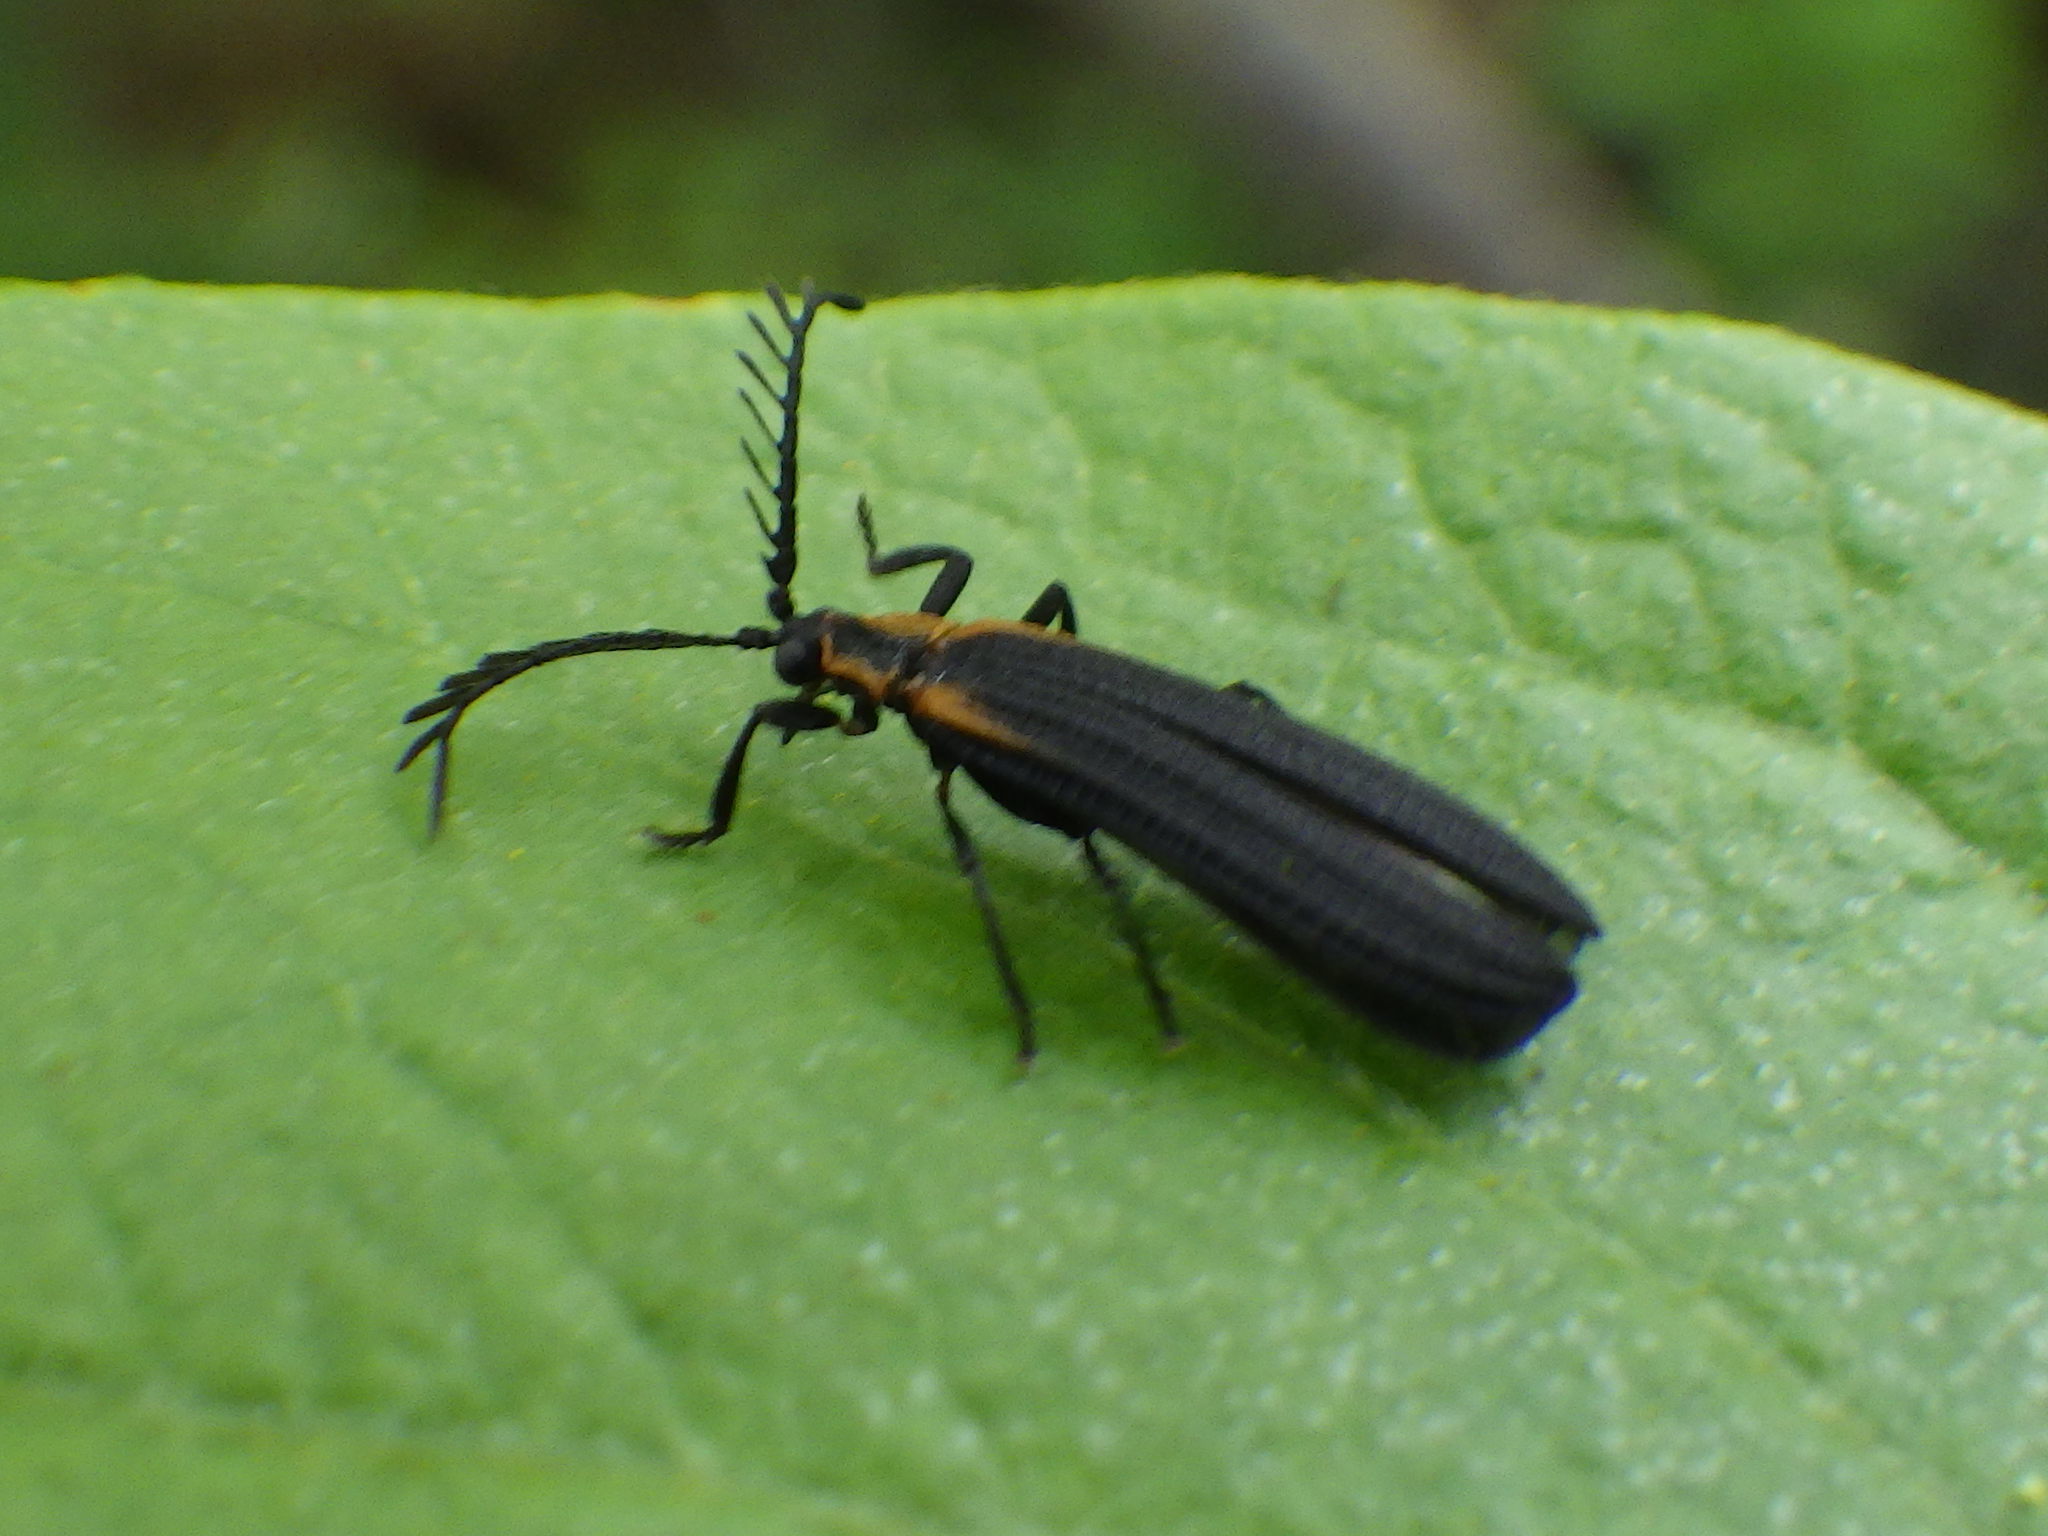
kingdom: Animalia
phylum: Arthropoda
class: Insecta
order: Coleoptera
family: Lycidae
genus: Leptoceletes
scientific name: Leptoceletes basalis
